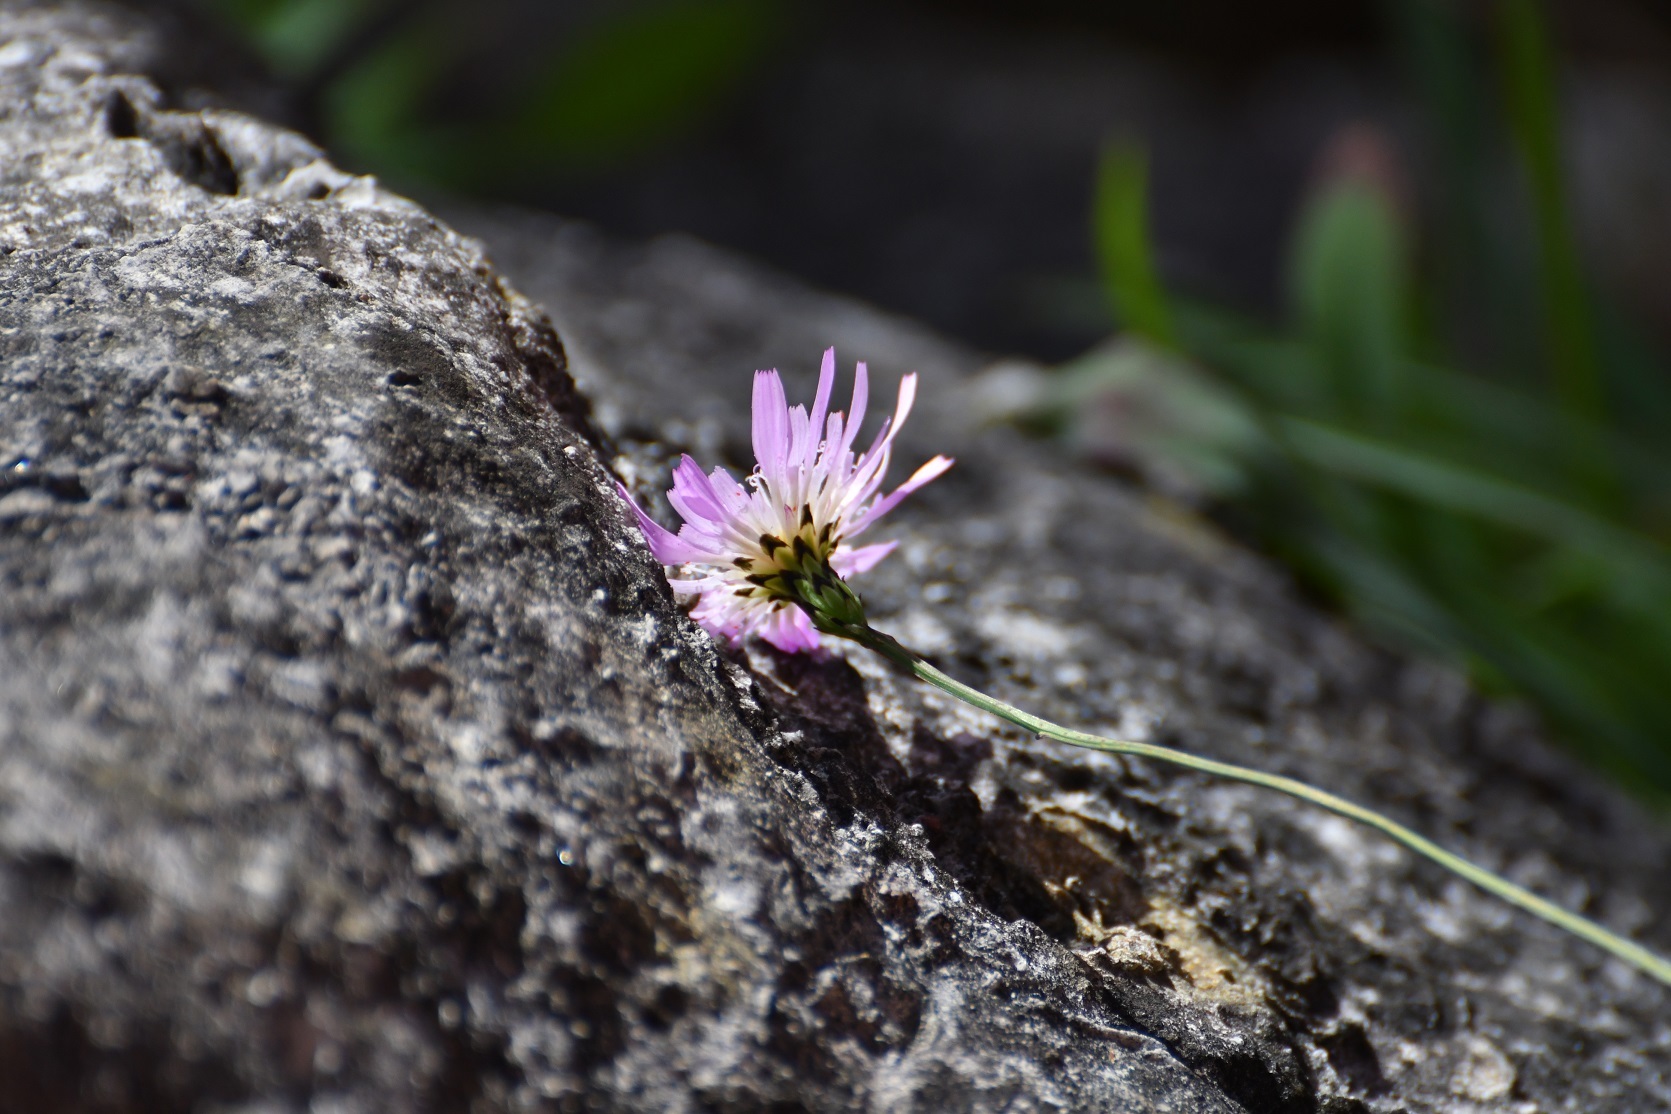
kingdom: Plantae
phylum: Tracheophyta
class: Magnoliopsida
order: Asterales
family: Asteraceae
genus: Pinaropappus
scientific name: Pinaropappus spathulatus
